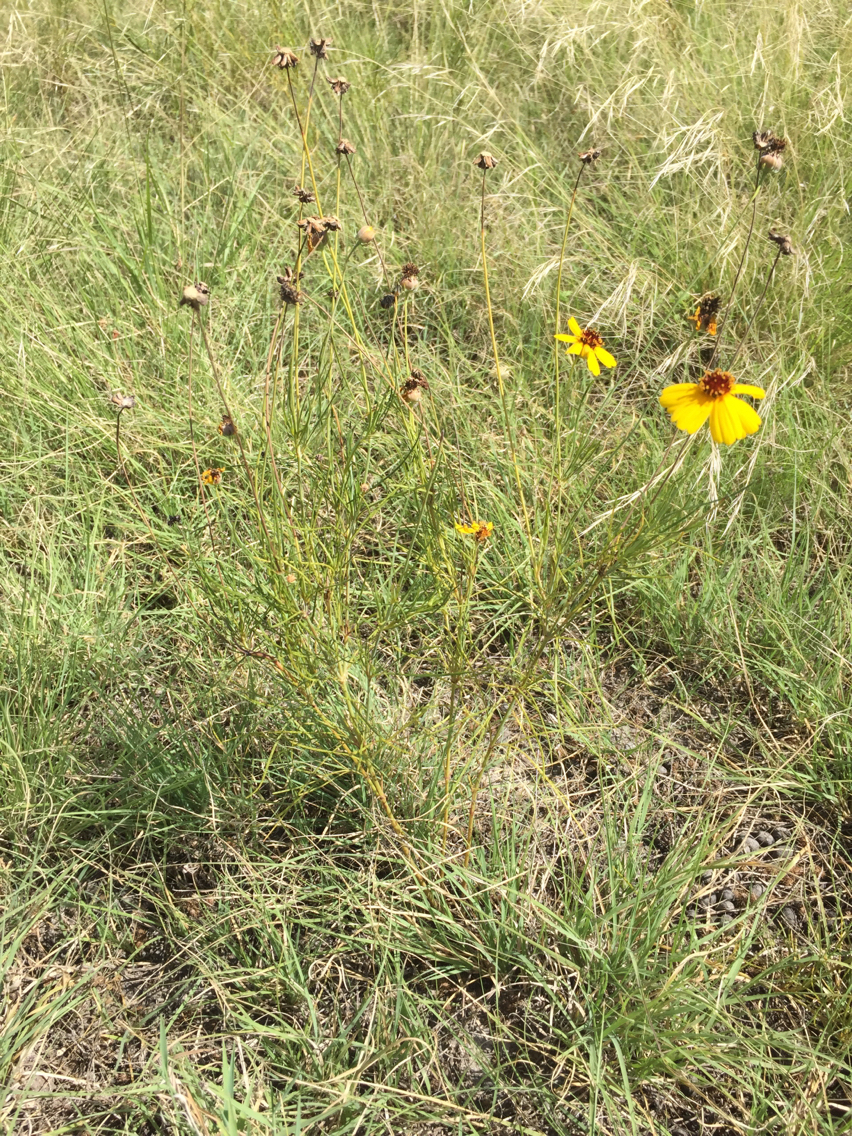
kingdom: Plantae
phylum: Tracheophyta
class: Magnoliopsida
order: Asterales
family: Asteraceae
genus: Thelesperma
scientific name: Thelesperma filifolium
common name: Stiff greenthread
